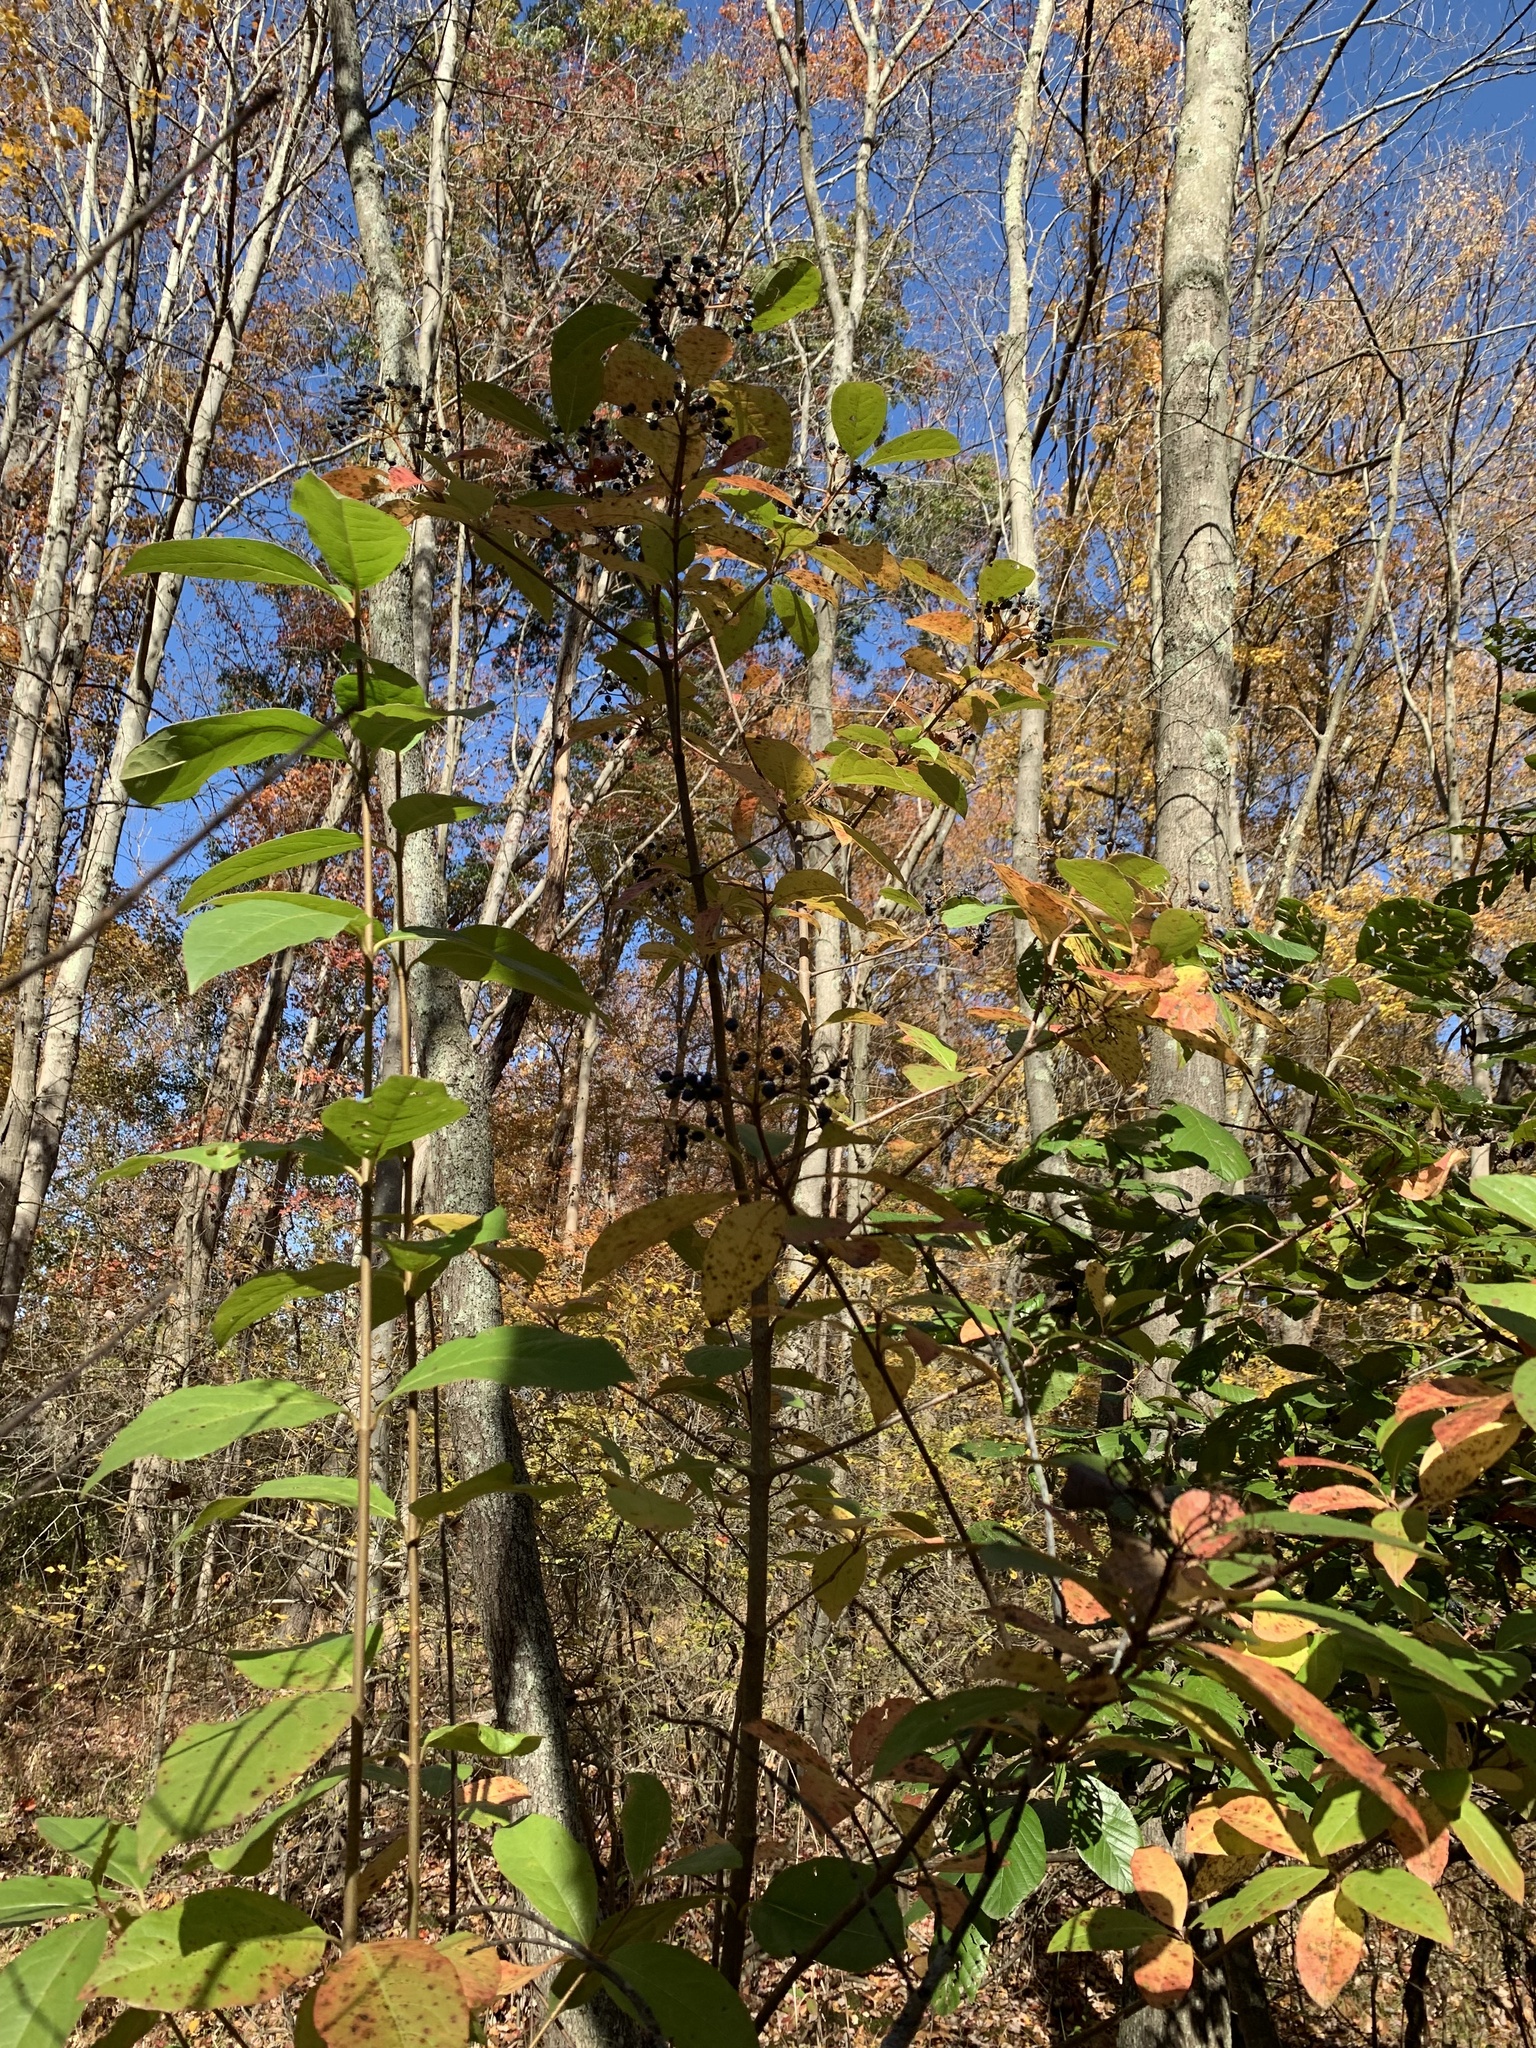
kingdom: Plantae
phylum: Tracheophyta
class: Magnoliopsida
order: Dipsacales
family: Viburnaceae
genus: Viburnum
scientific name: Viburnum nudum
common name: Possum haw
